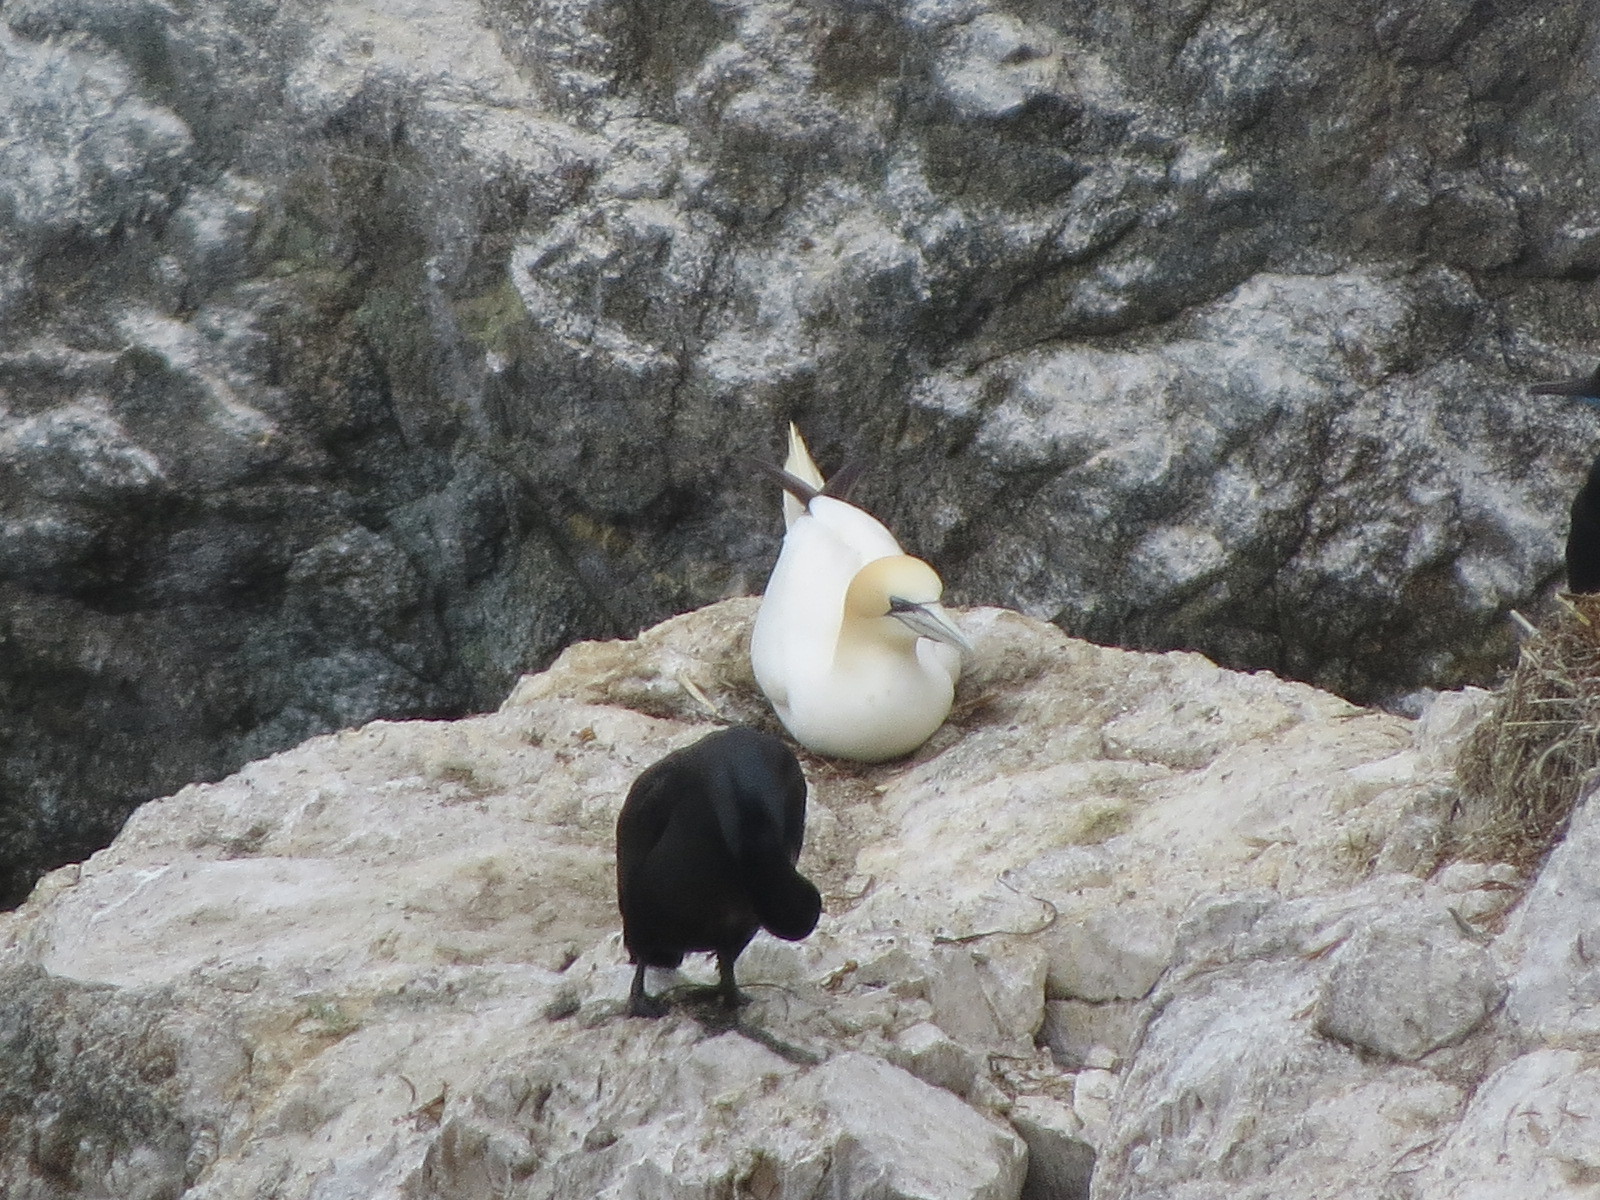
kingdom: Animalia
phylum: Chordata
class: Aves
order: Suliformes
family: Sulidae
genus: Morus
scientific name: Morus bassanus
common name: Northern gannet
